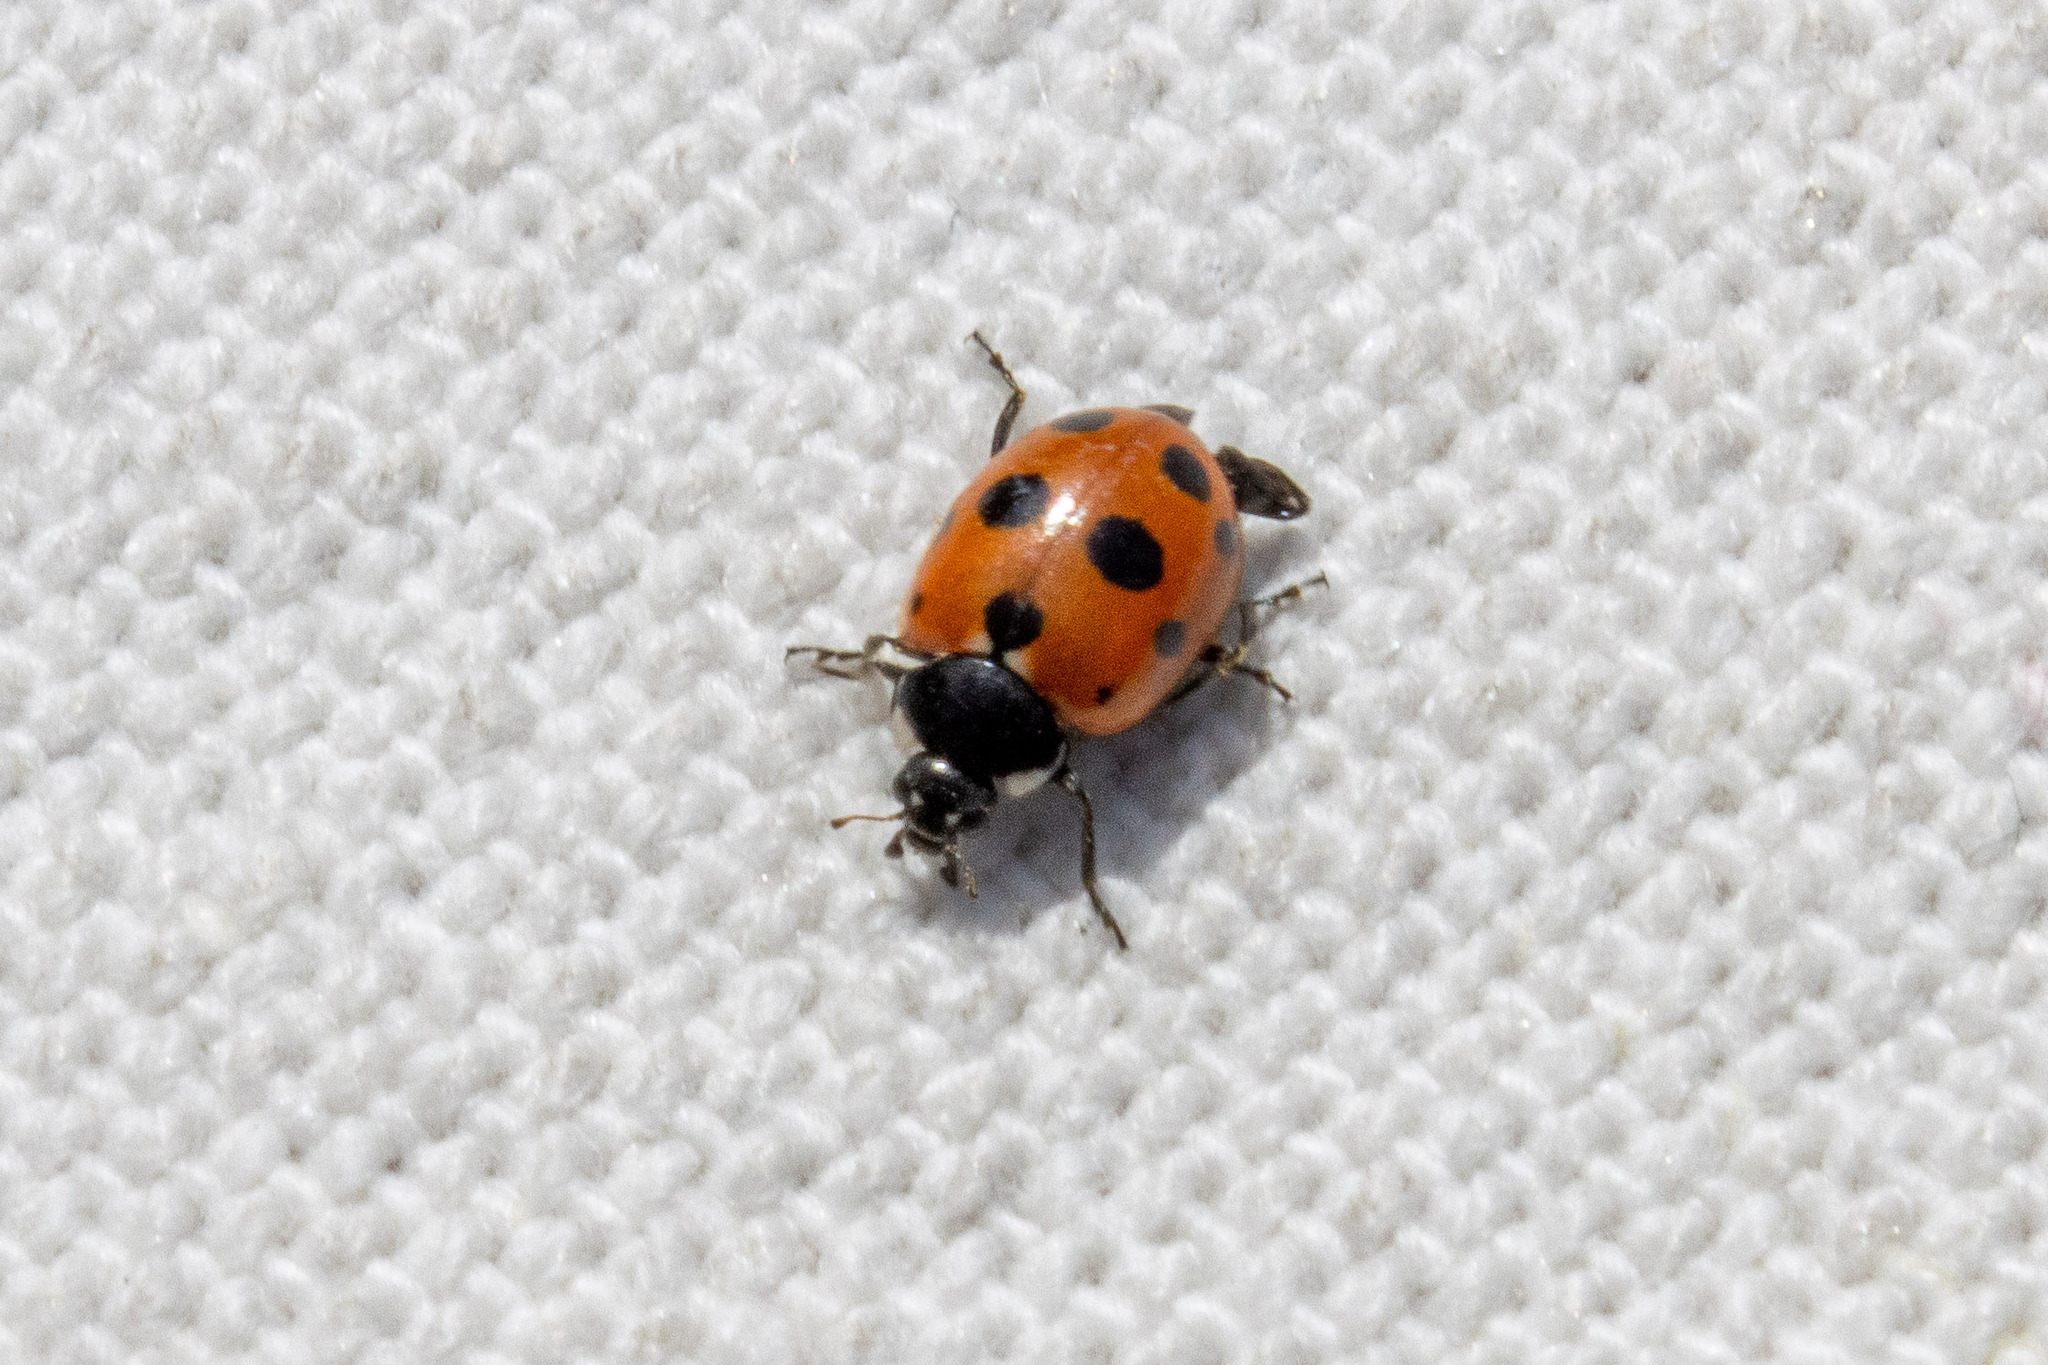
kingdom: Animalia
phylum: Arthropoda
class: Insecta
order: Coleoptera
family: Coccinellidae
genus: Coccinella
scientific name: Coccinella undecimpunctata
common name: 11-spot ladybird
